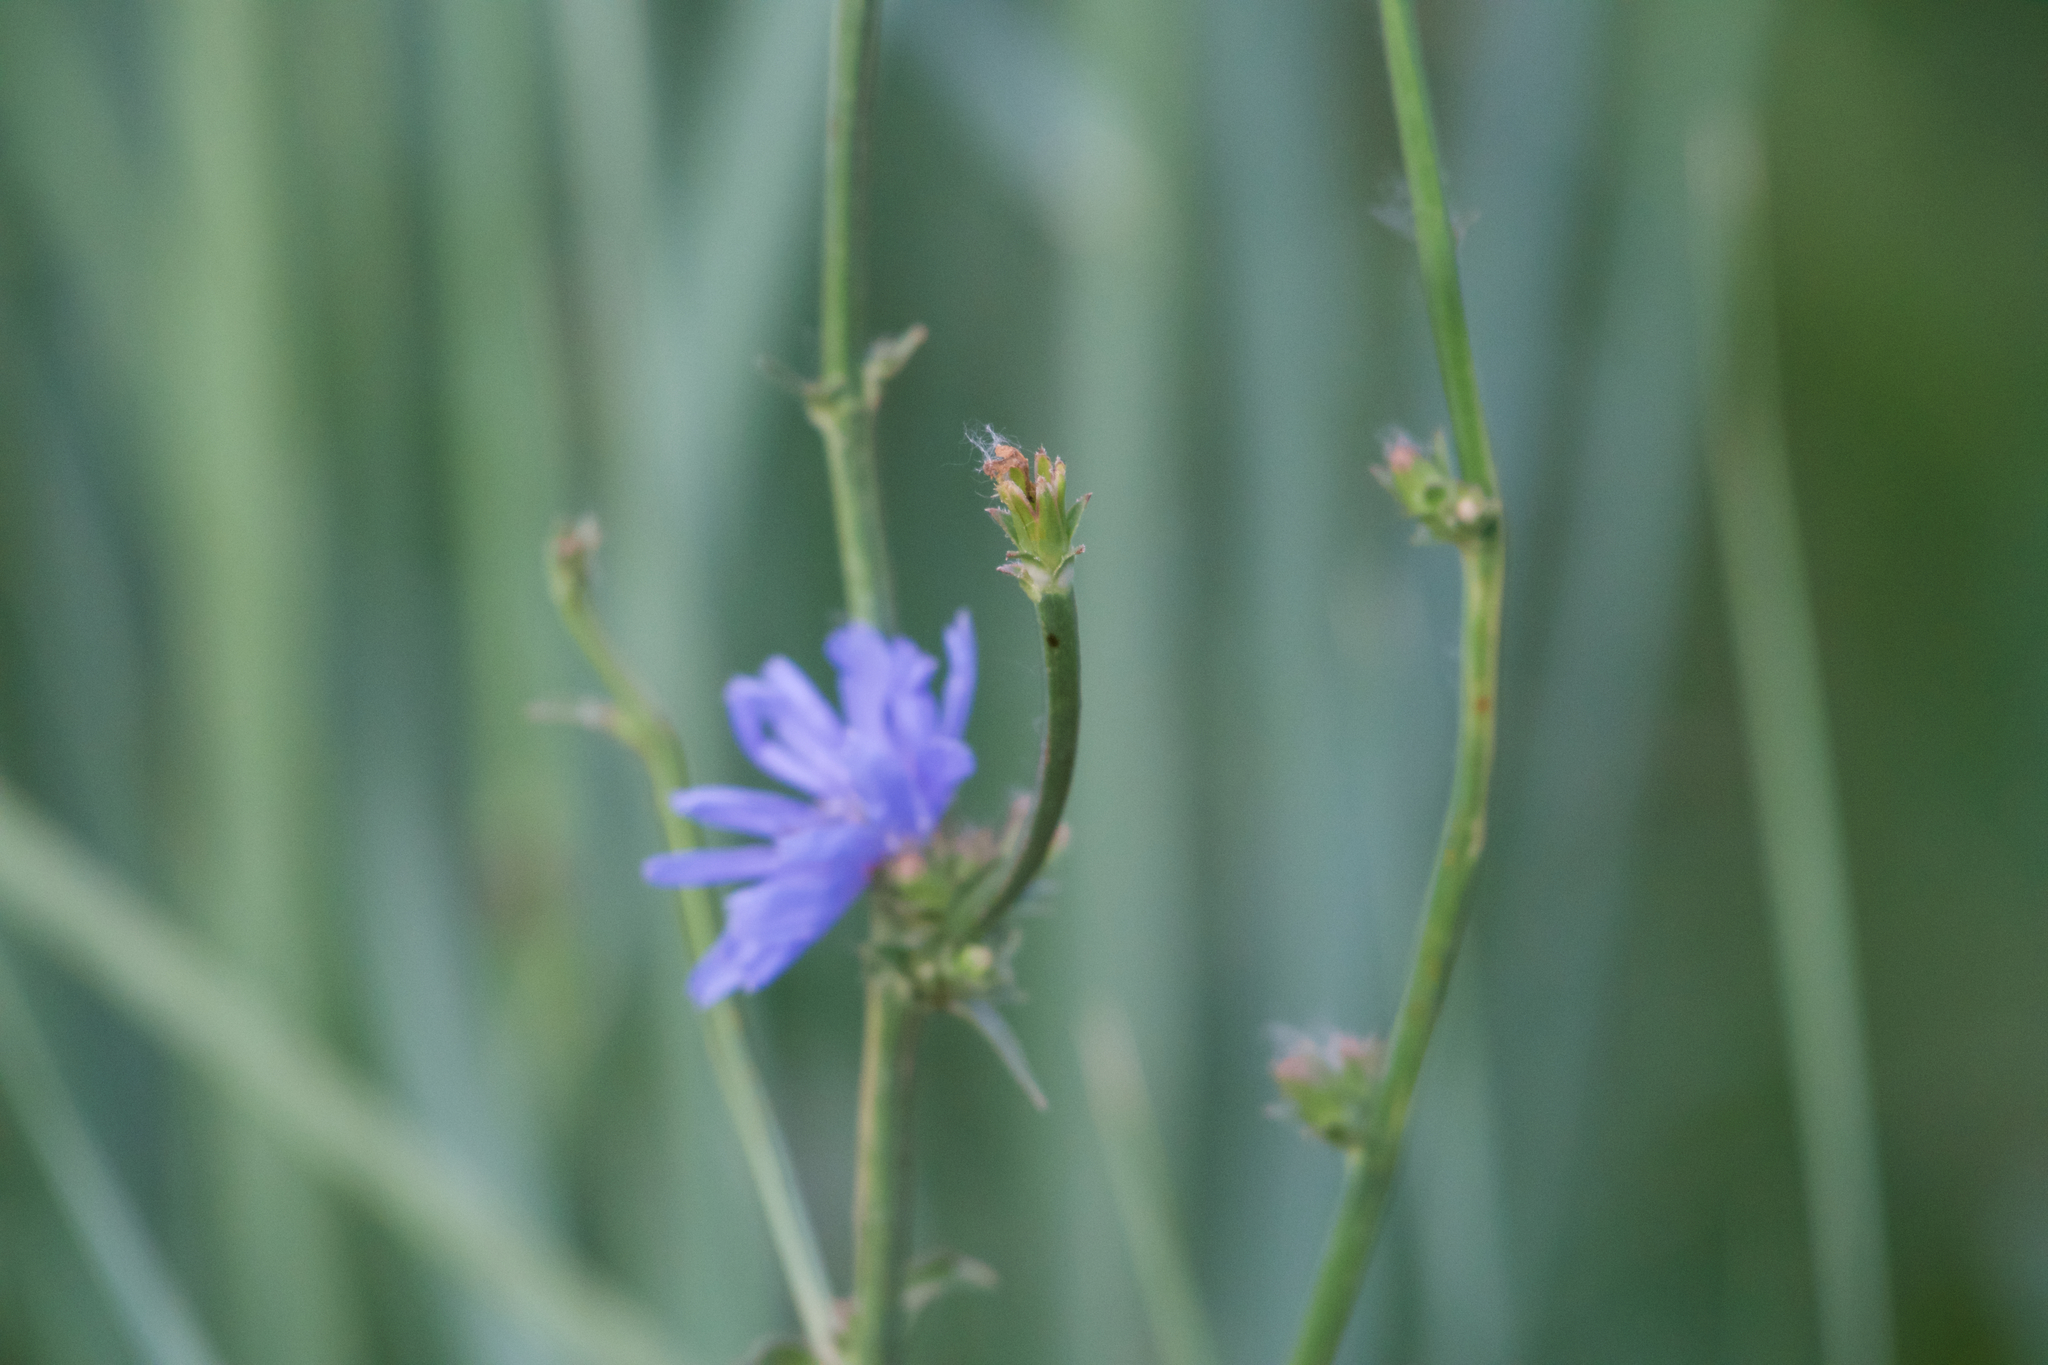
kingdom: Plantae
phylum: Tracheophyta
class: Magnoliopsida
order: Asterales
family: Asteraceae
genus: Cichorium
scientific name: Cichorium intybus
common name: Chicory
